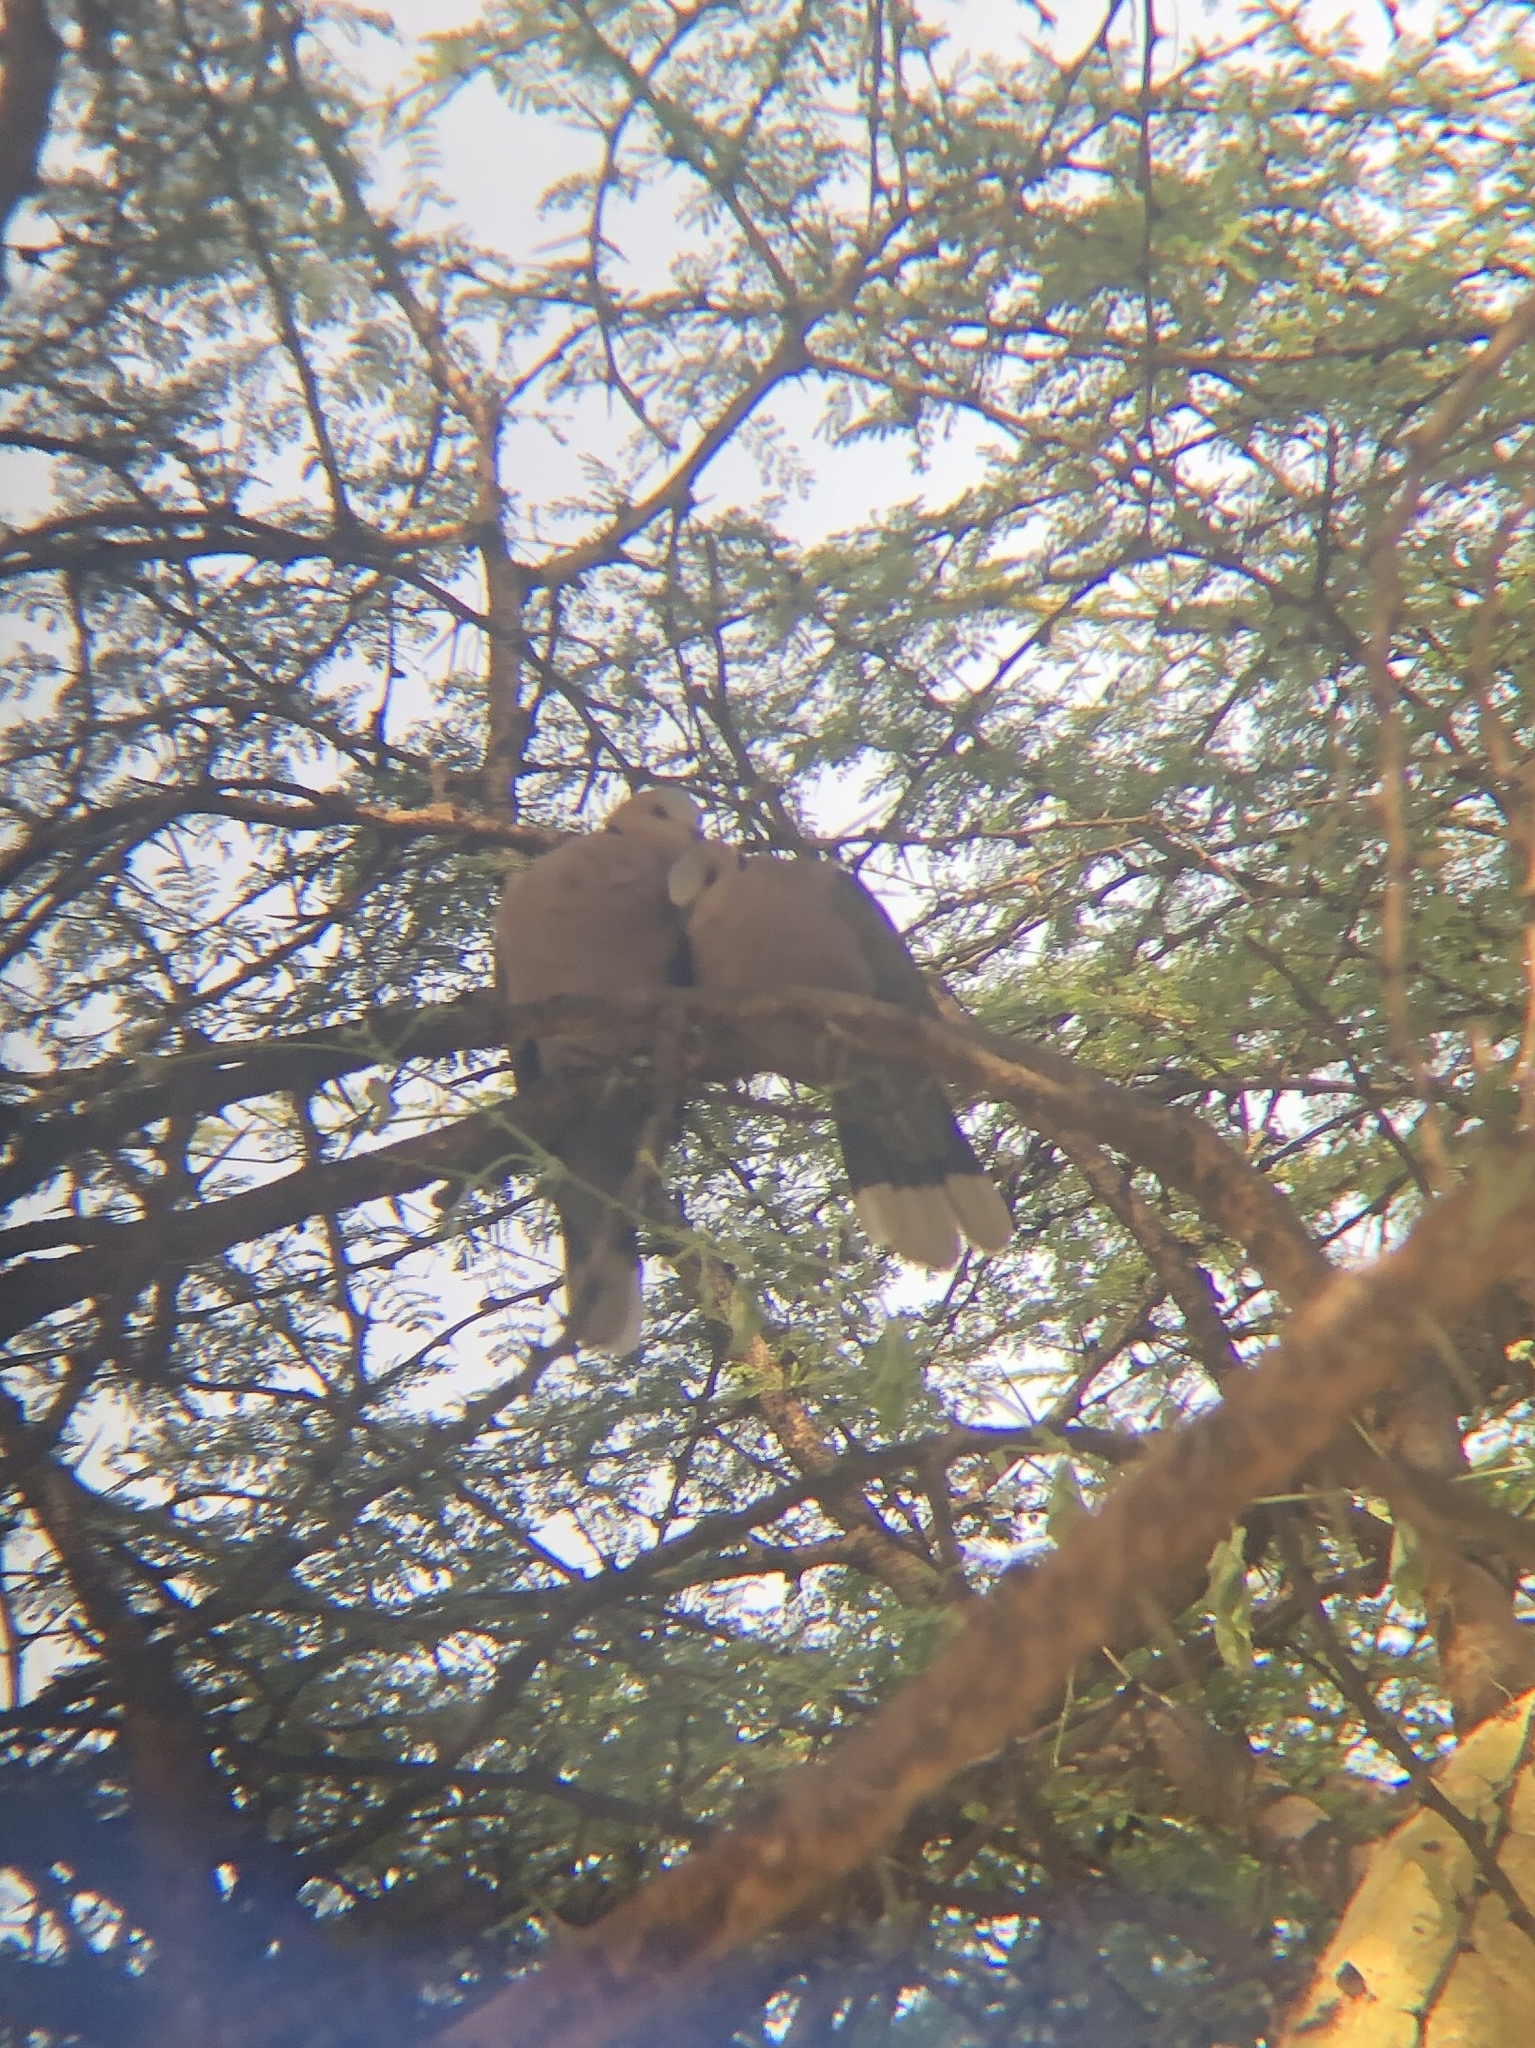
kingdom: Animalia
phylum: Chordata
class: Aves
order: Columbiformes
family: Columbidae
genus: Streptopelia
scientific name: Streptopelia semitorquata
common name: Red-eyed dove
